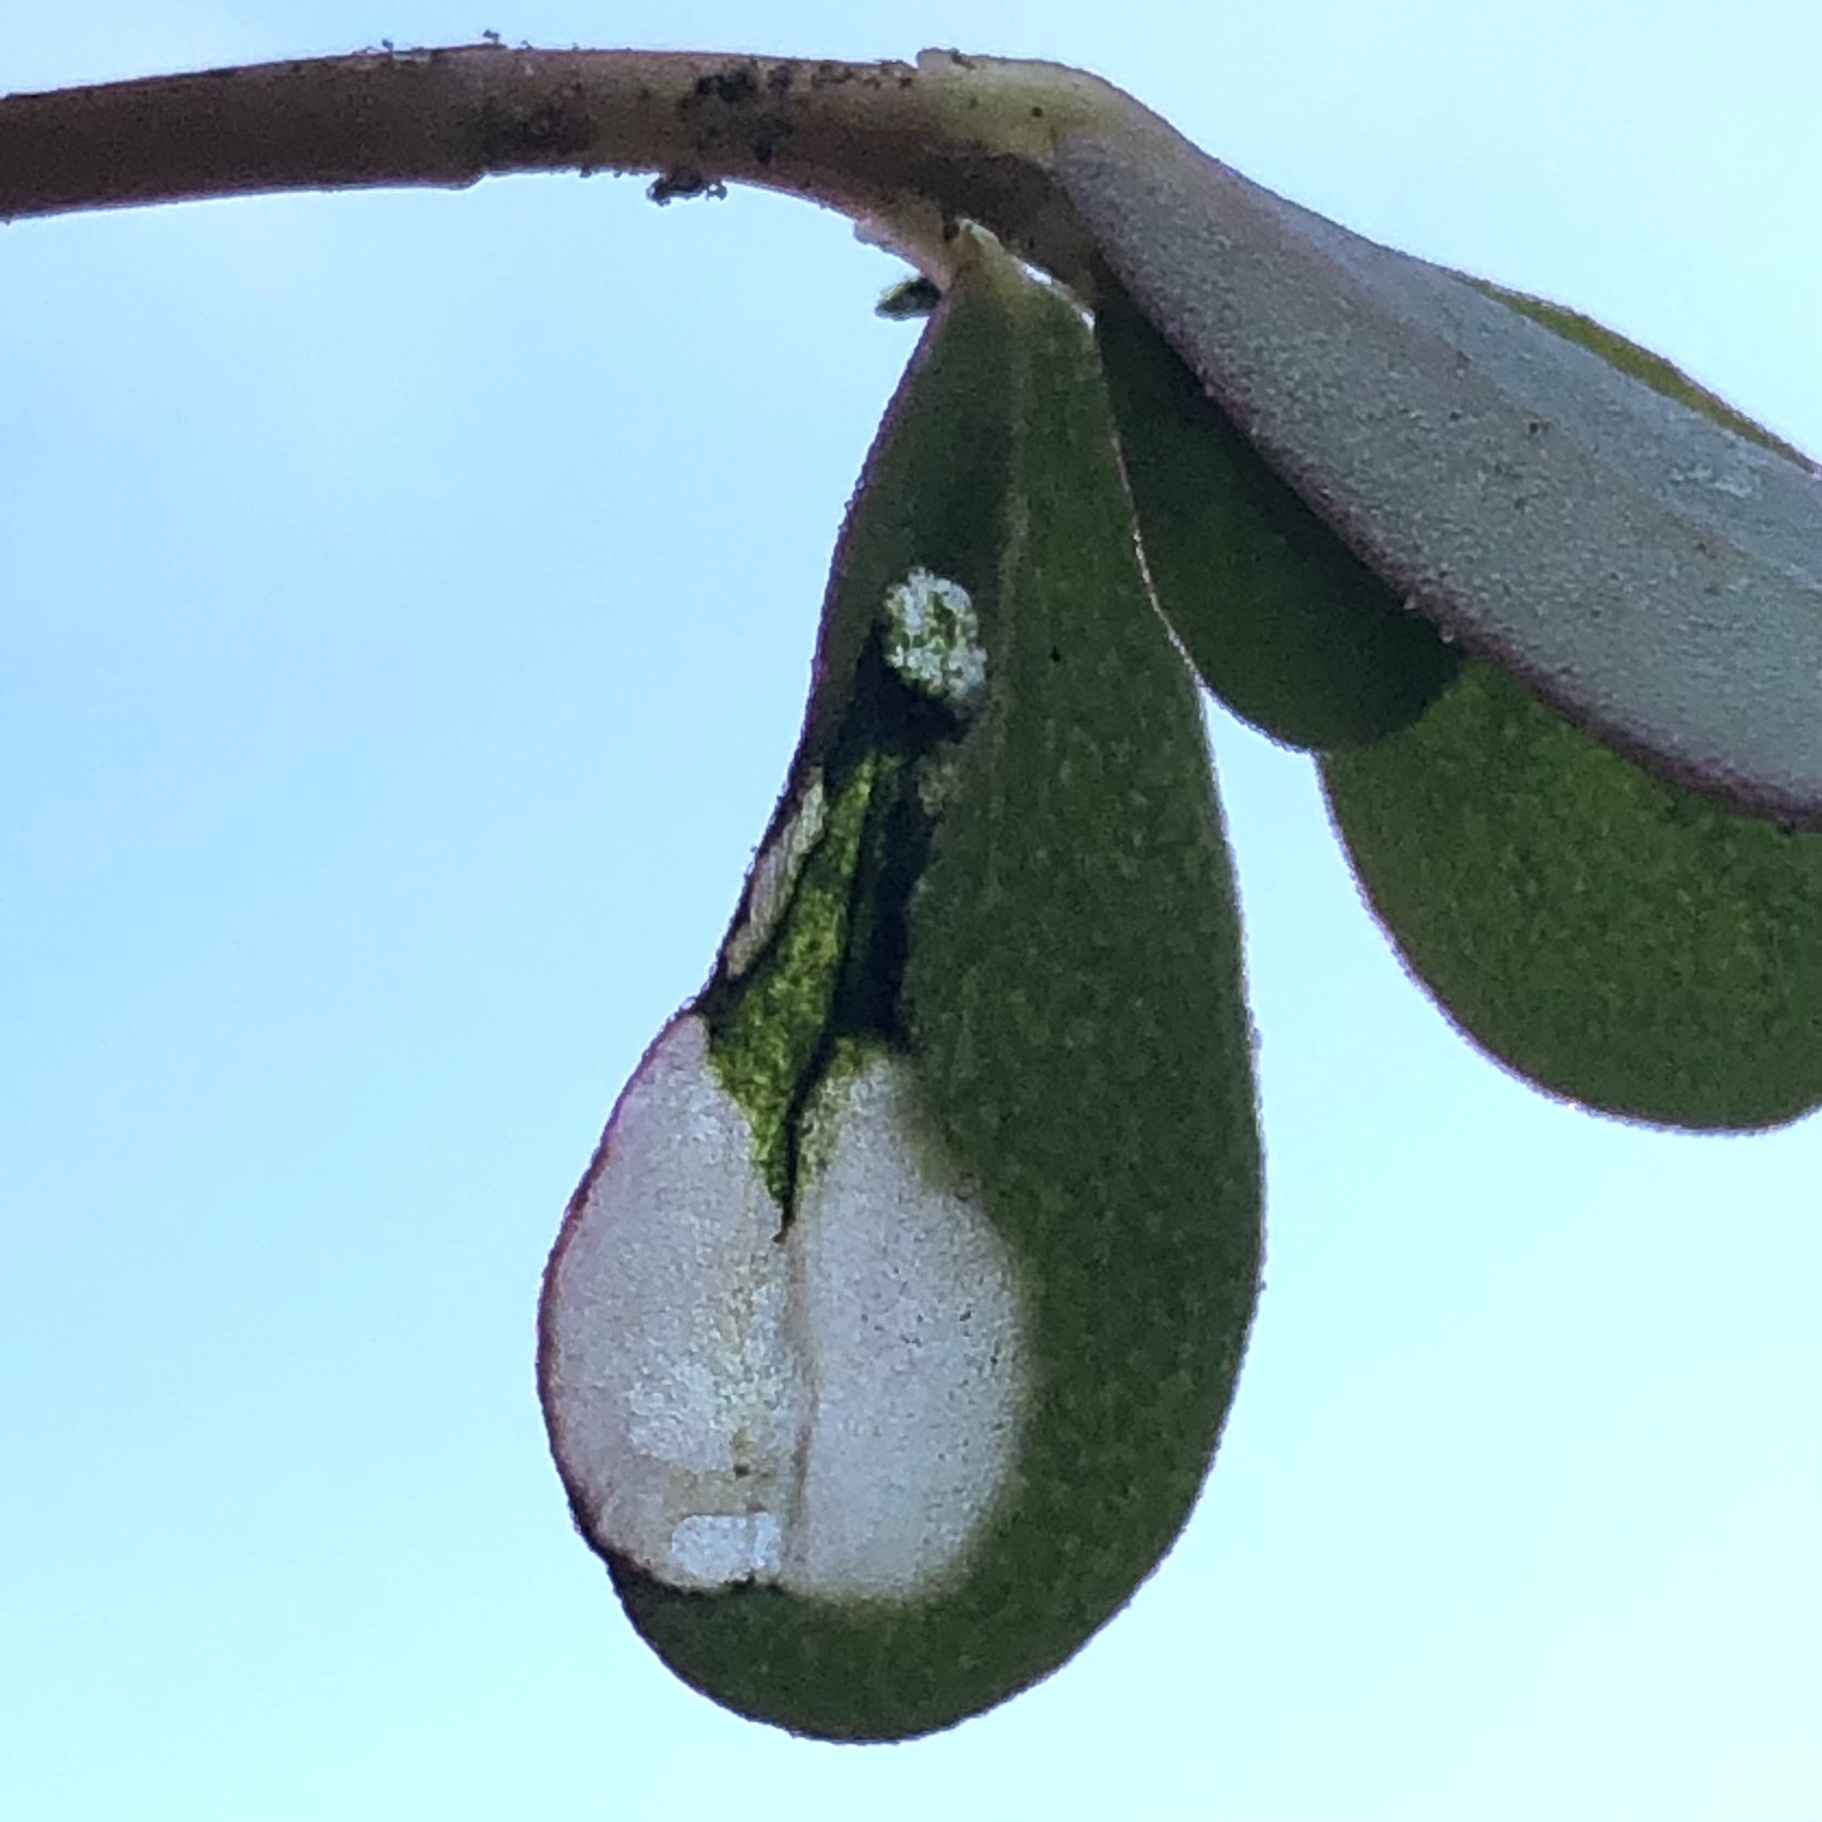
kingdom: Animalia
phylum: Arthropoda
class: Insecta
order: Hymenoptera
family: Argidae
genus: Schizocerella
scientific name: Schizocerella pilicornis
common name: Purslane sawfly
